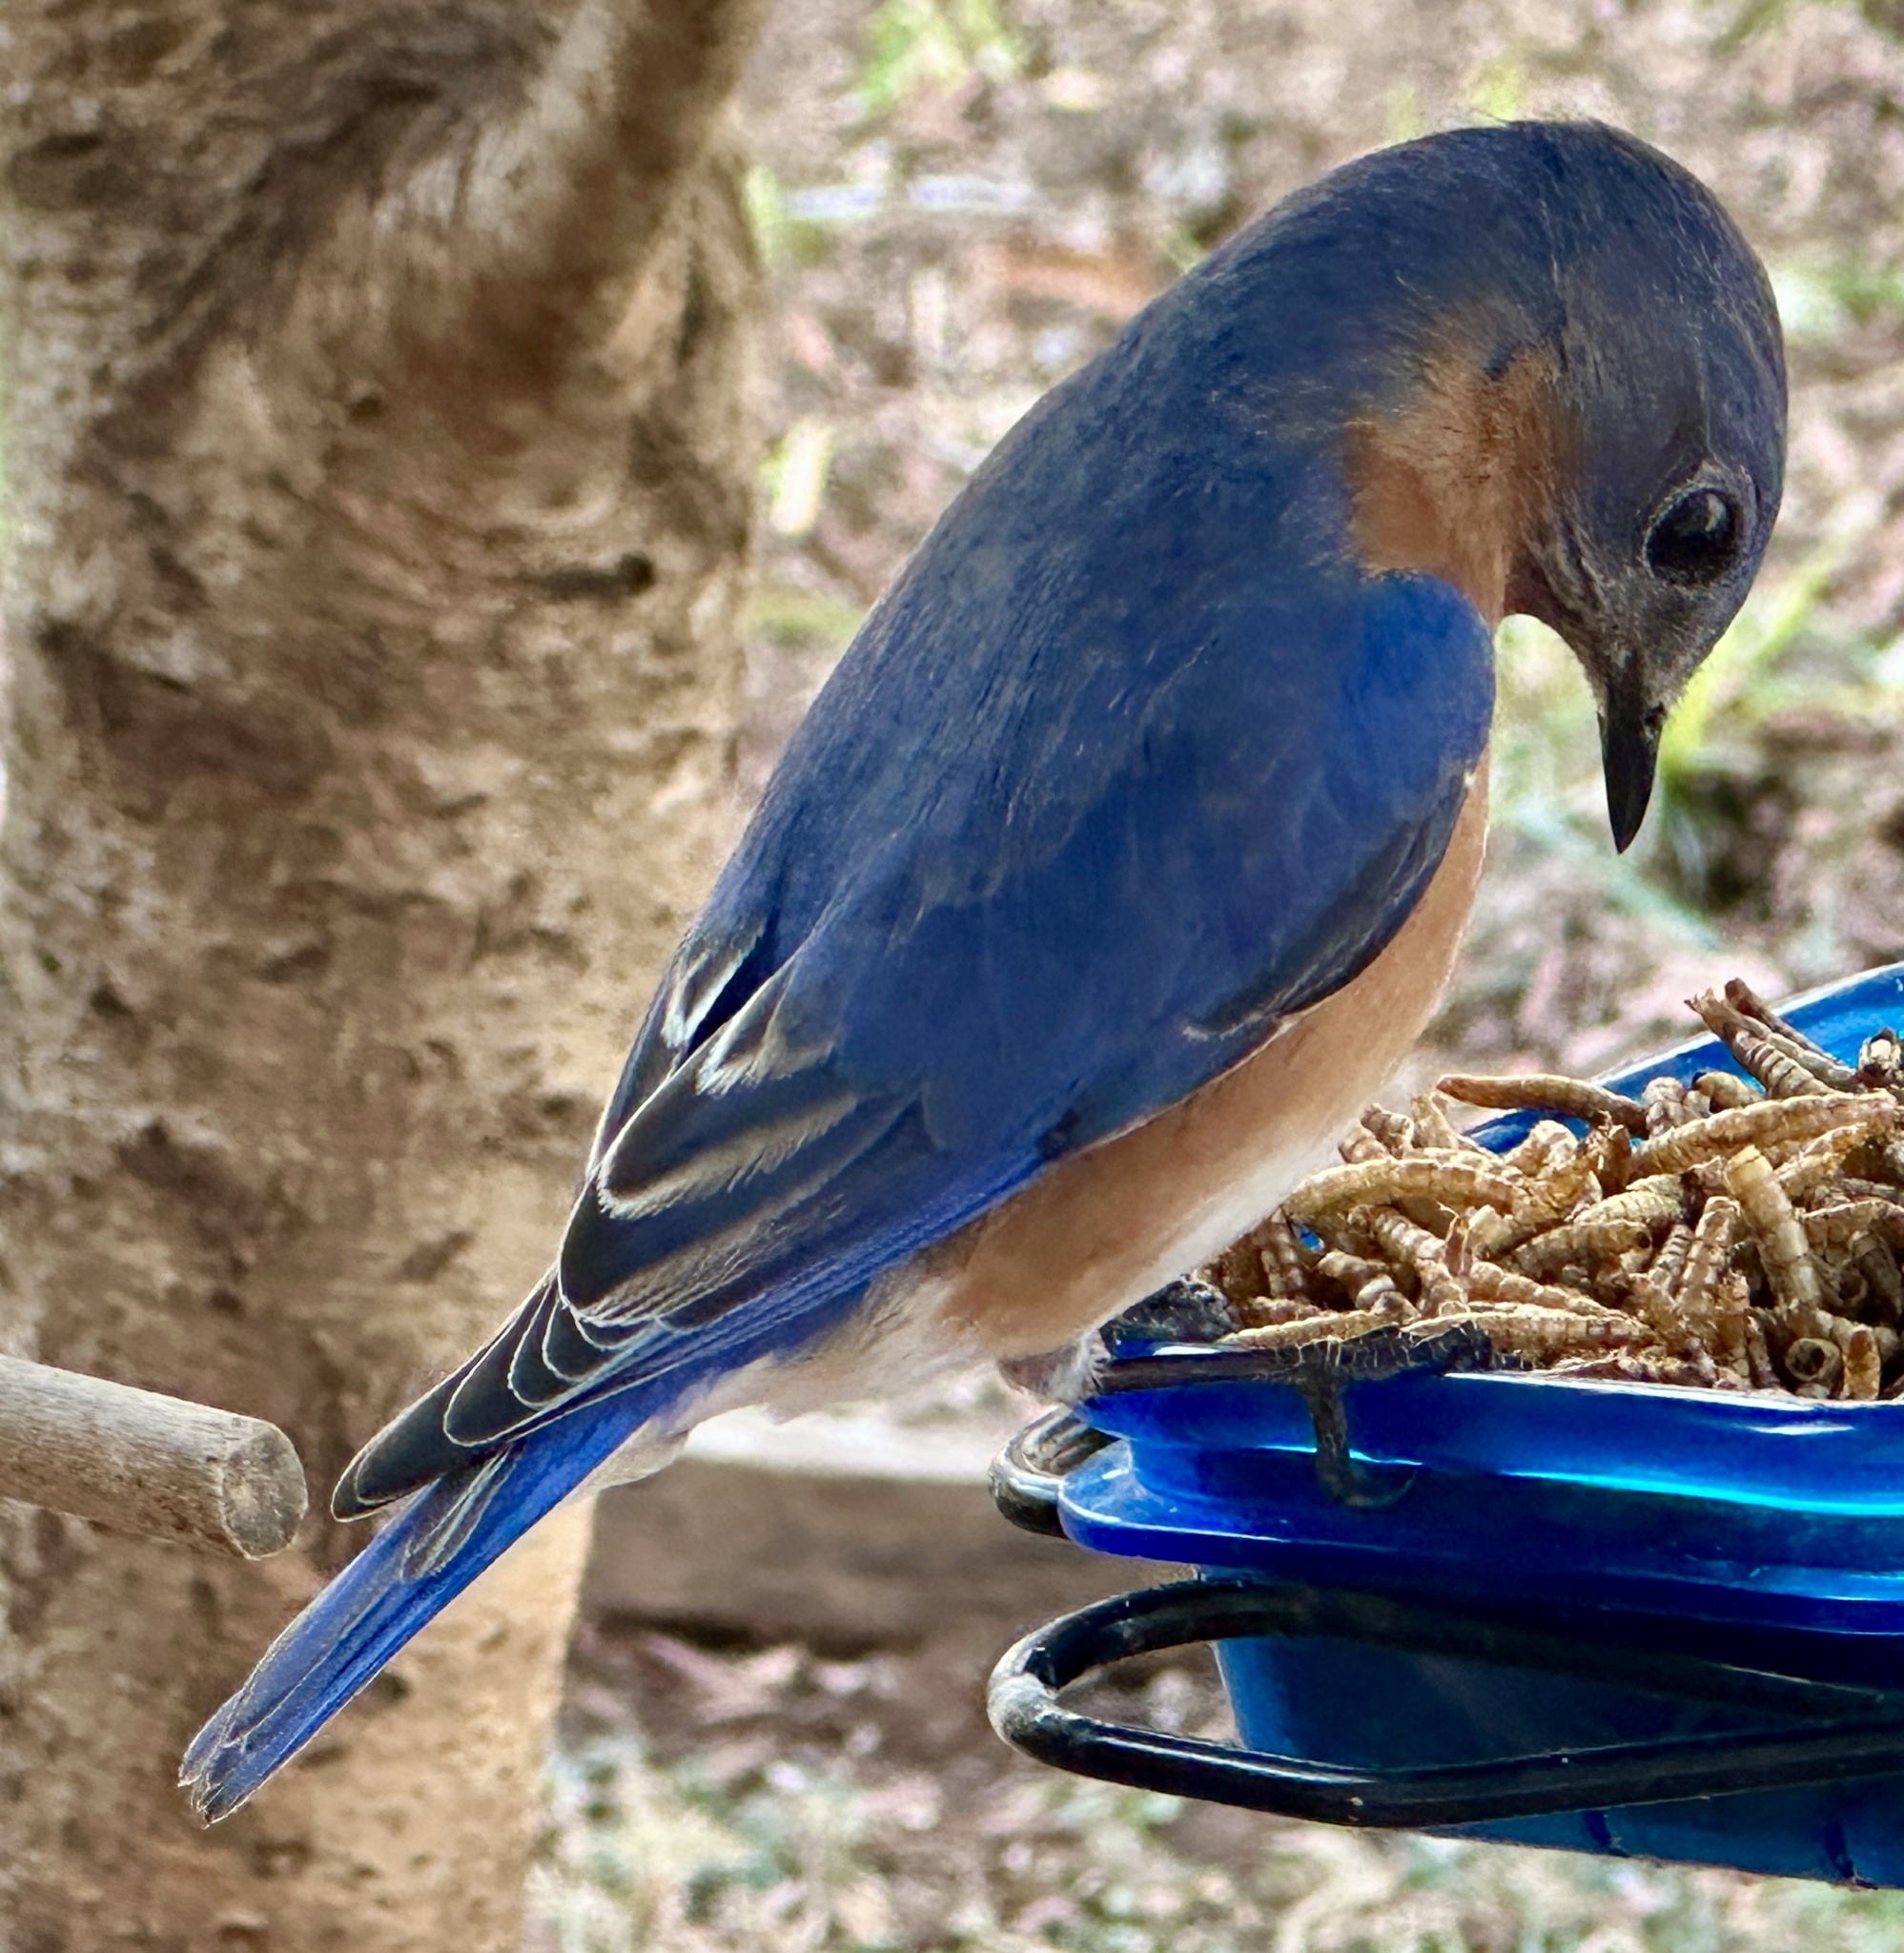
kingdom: Animalia
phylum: Chordata
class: Aves
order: Passeriformes
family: Turdidae
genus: Sialia
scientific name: Sialia sialis
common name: Eastern bluebird
